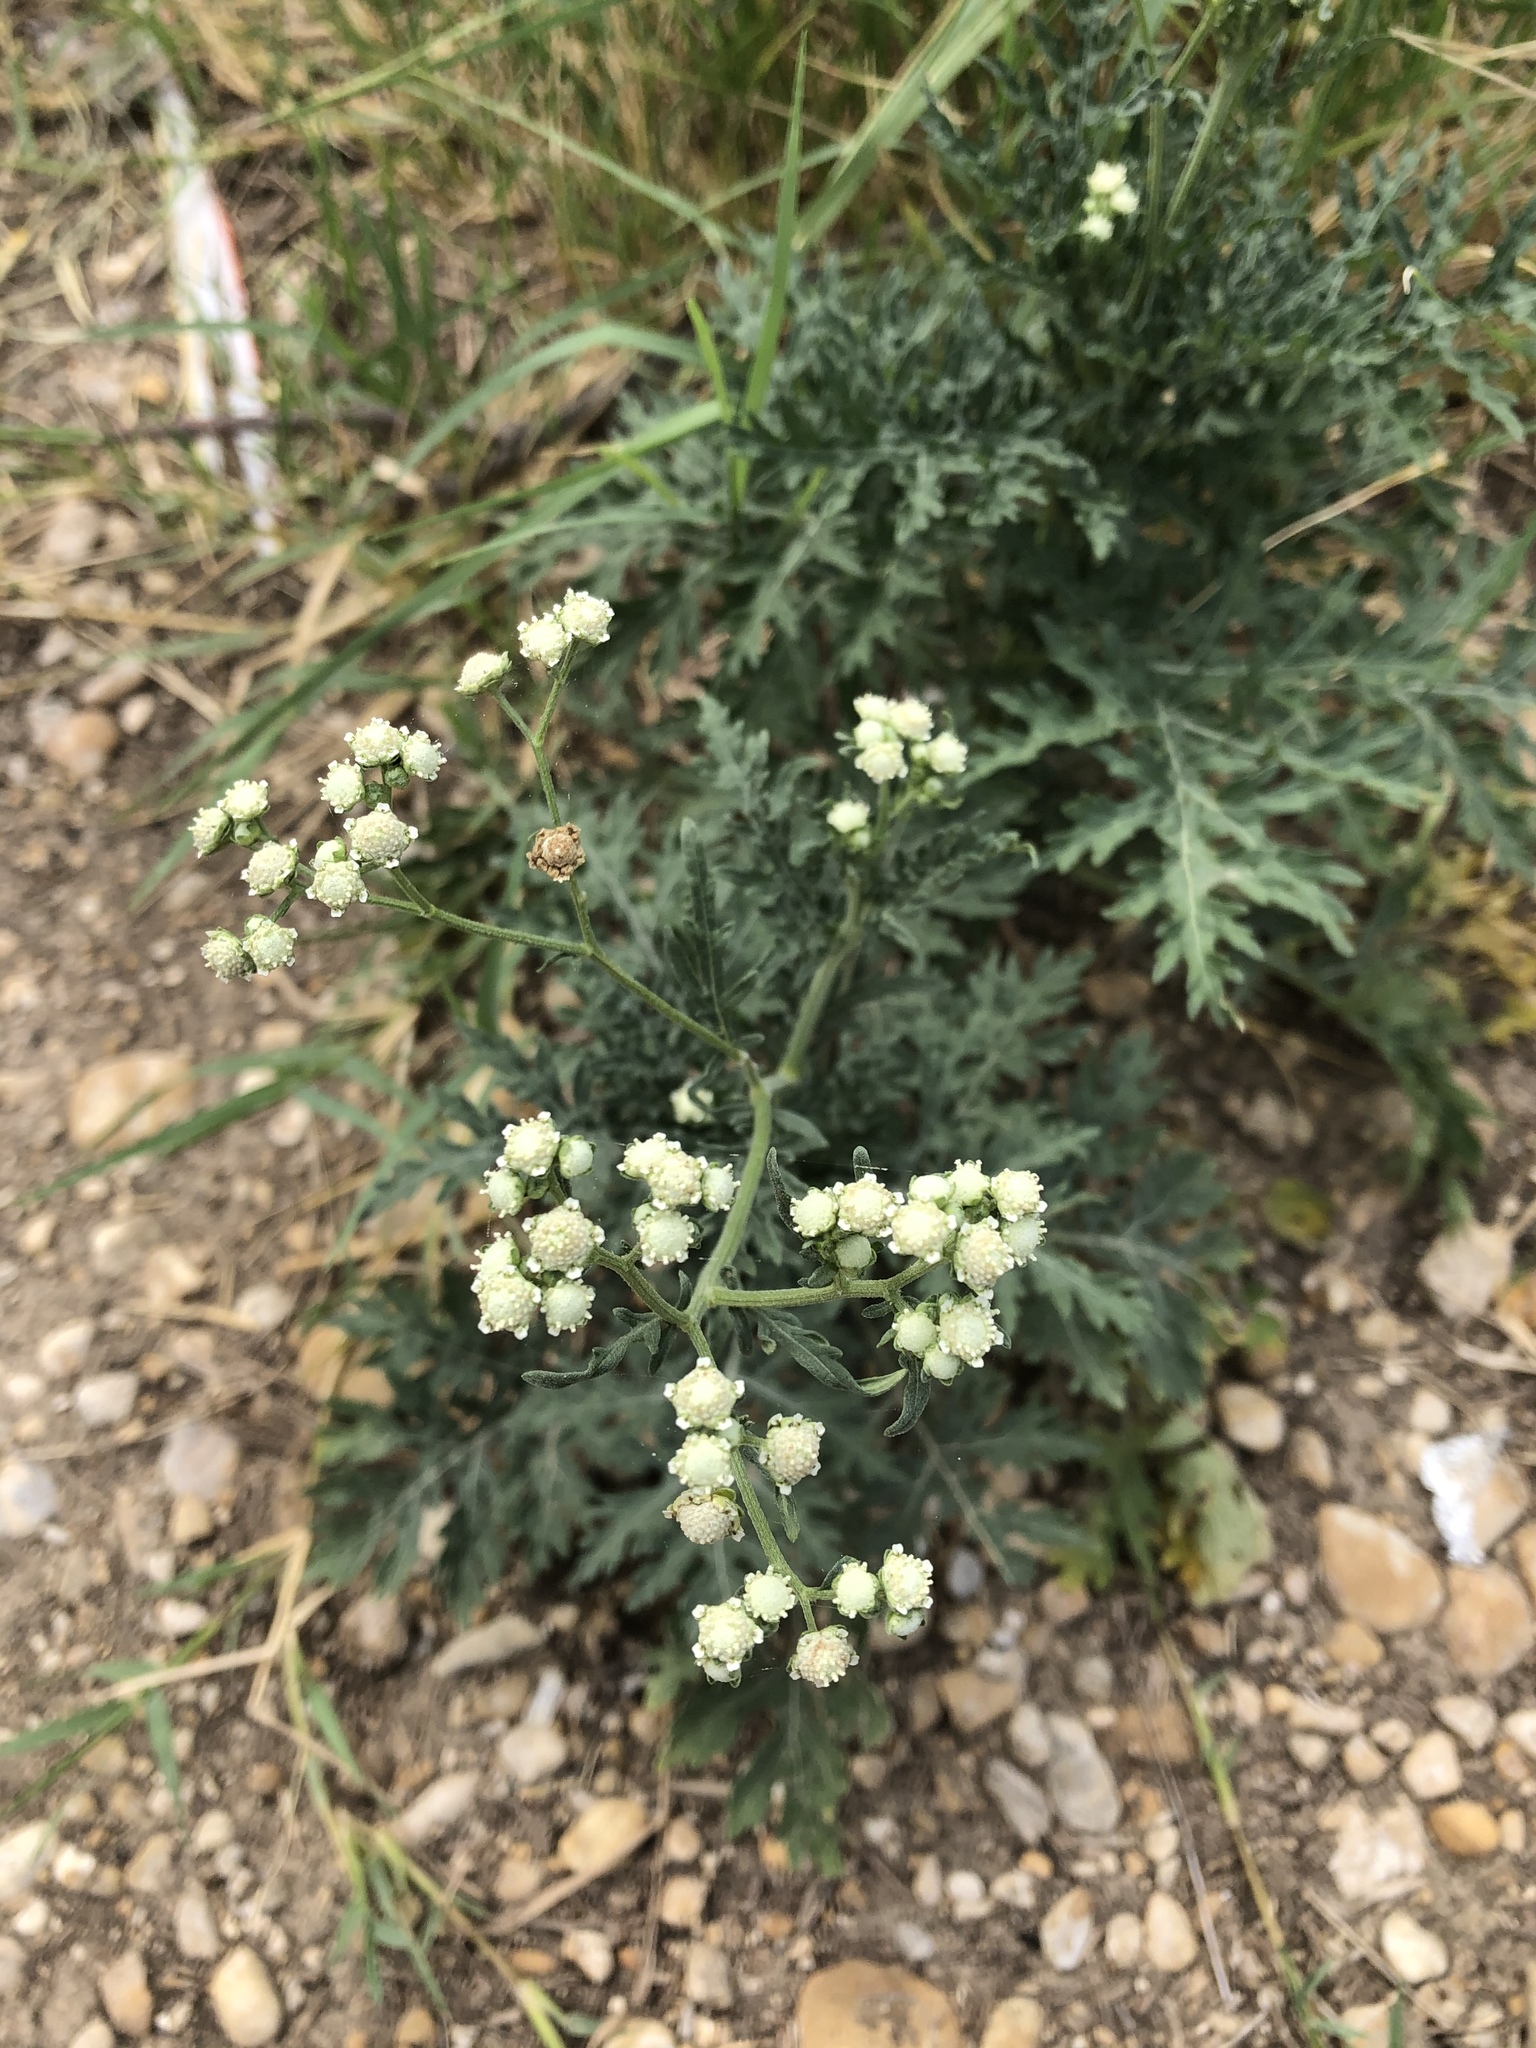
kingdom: Plantae
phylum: Tracheophyta
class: Magnoliopsida
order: Asterales
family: Asteraceae
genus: Parthenium
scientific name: Parthenium hysterophorus
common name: Santa maria feverfew
